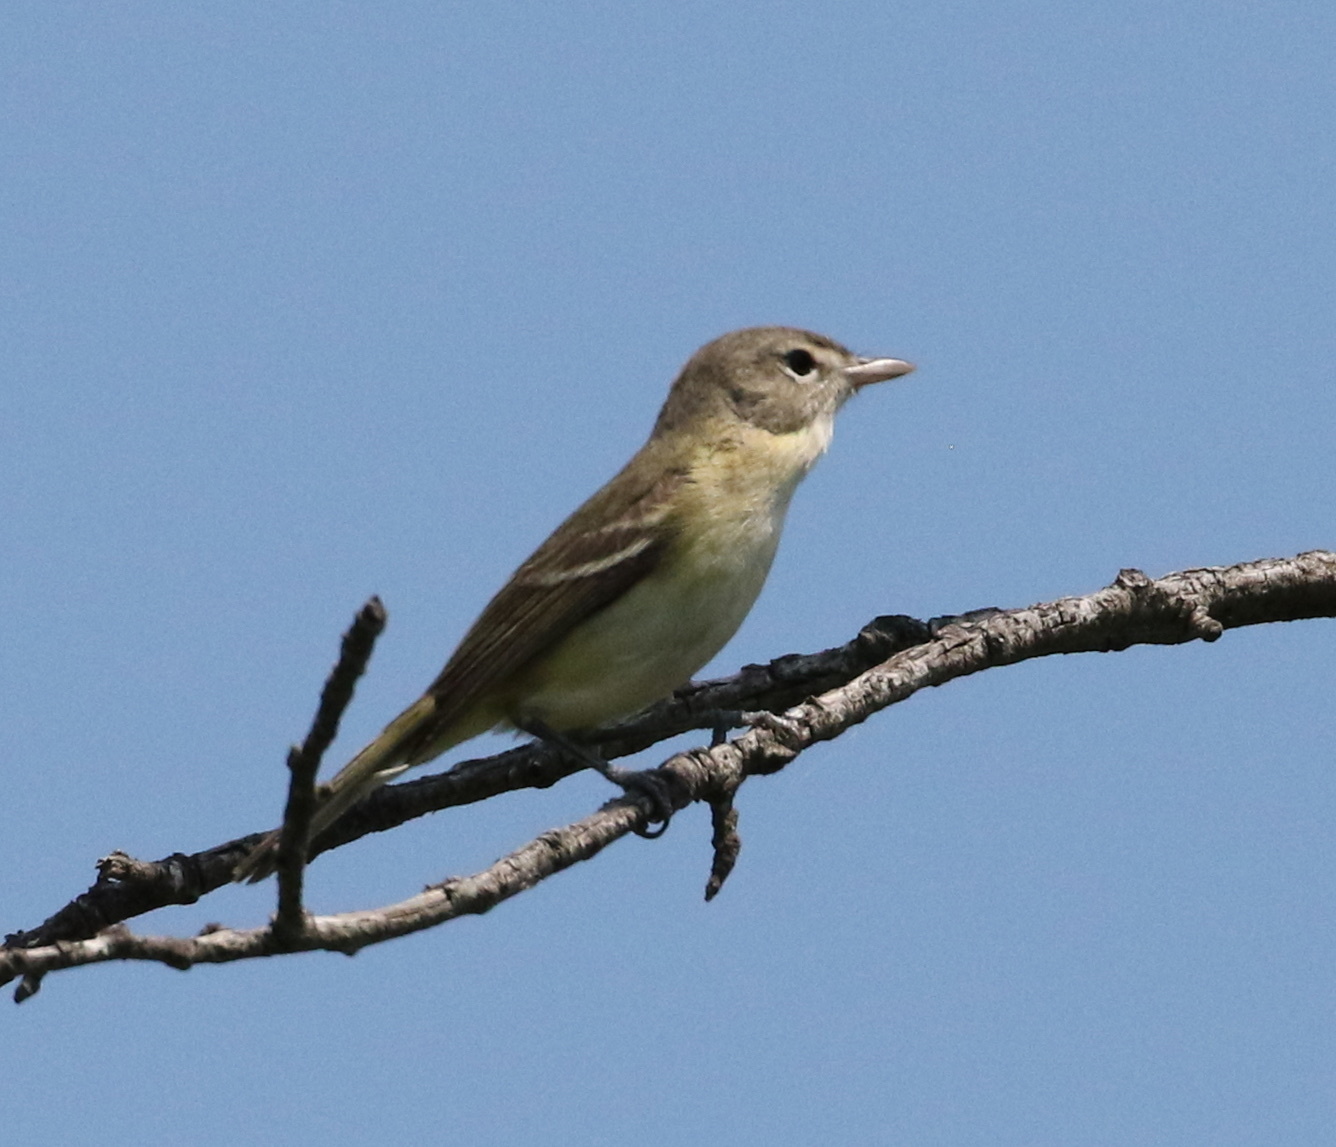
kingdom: Animalia
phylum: Chordata
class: Aves
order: Passeriformes
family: Vireonidae
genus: Vireo
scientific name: Vireo bellii
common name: Bell's vireo
